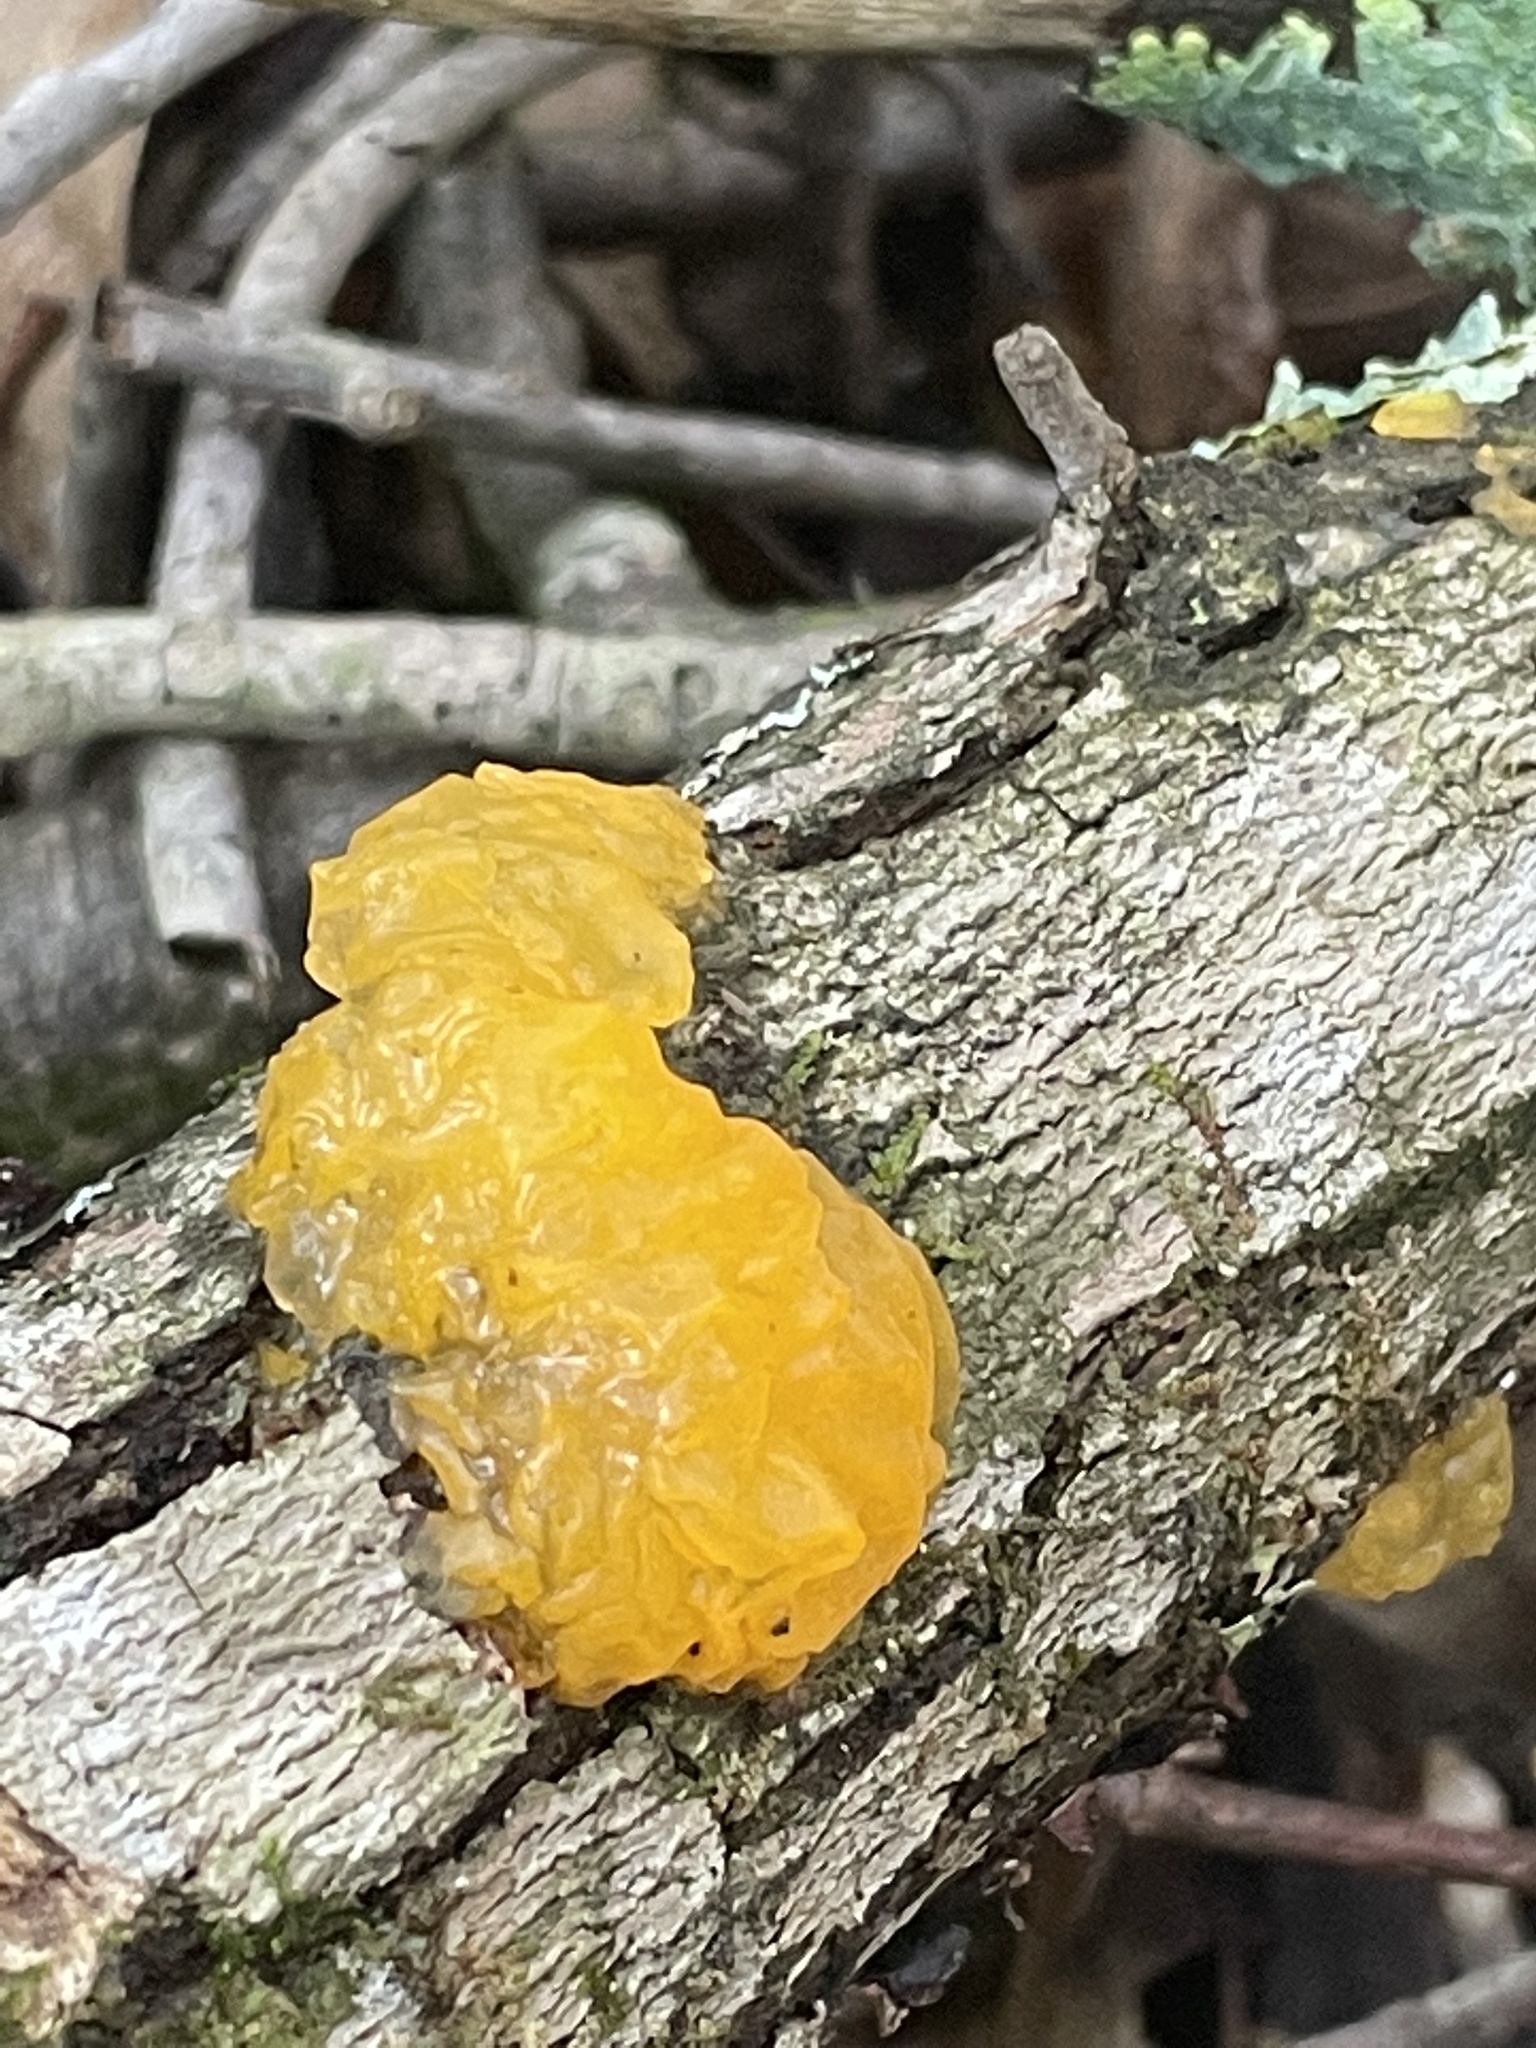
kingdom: Fungi
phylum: Basidiomycota
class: Tremellomycetes
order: Tremellales
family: Tremellaceae
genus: Tremella
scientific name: Tremella mesenterica
